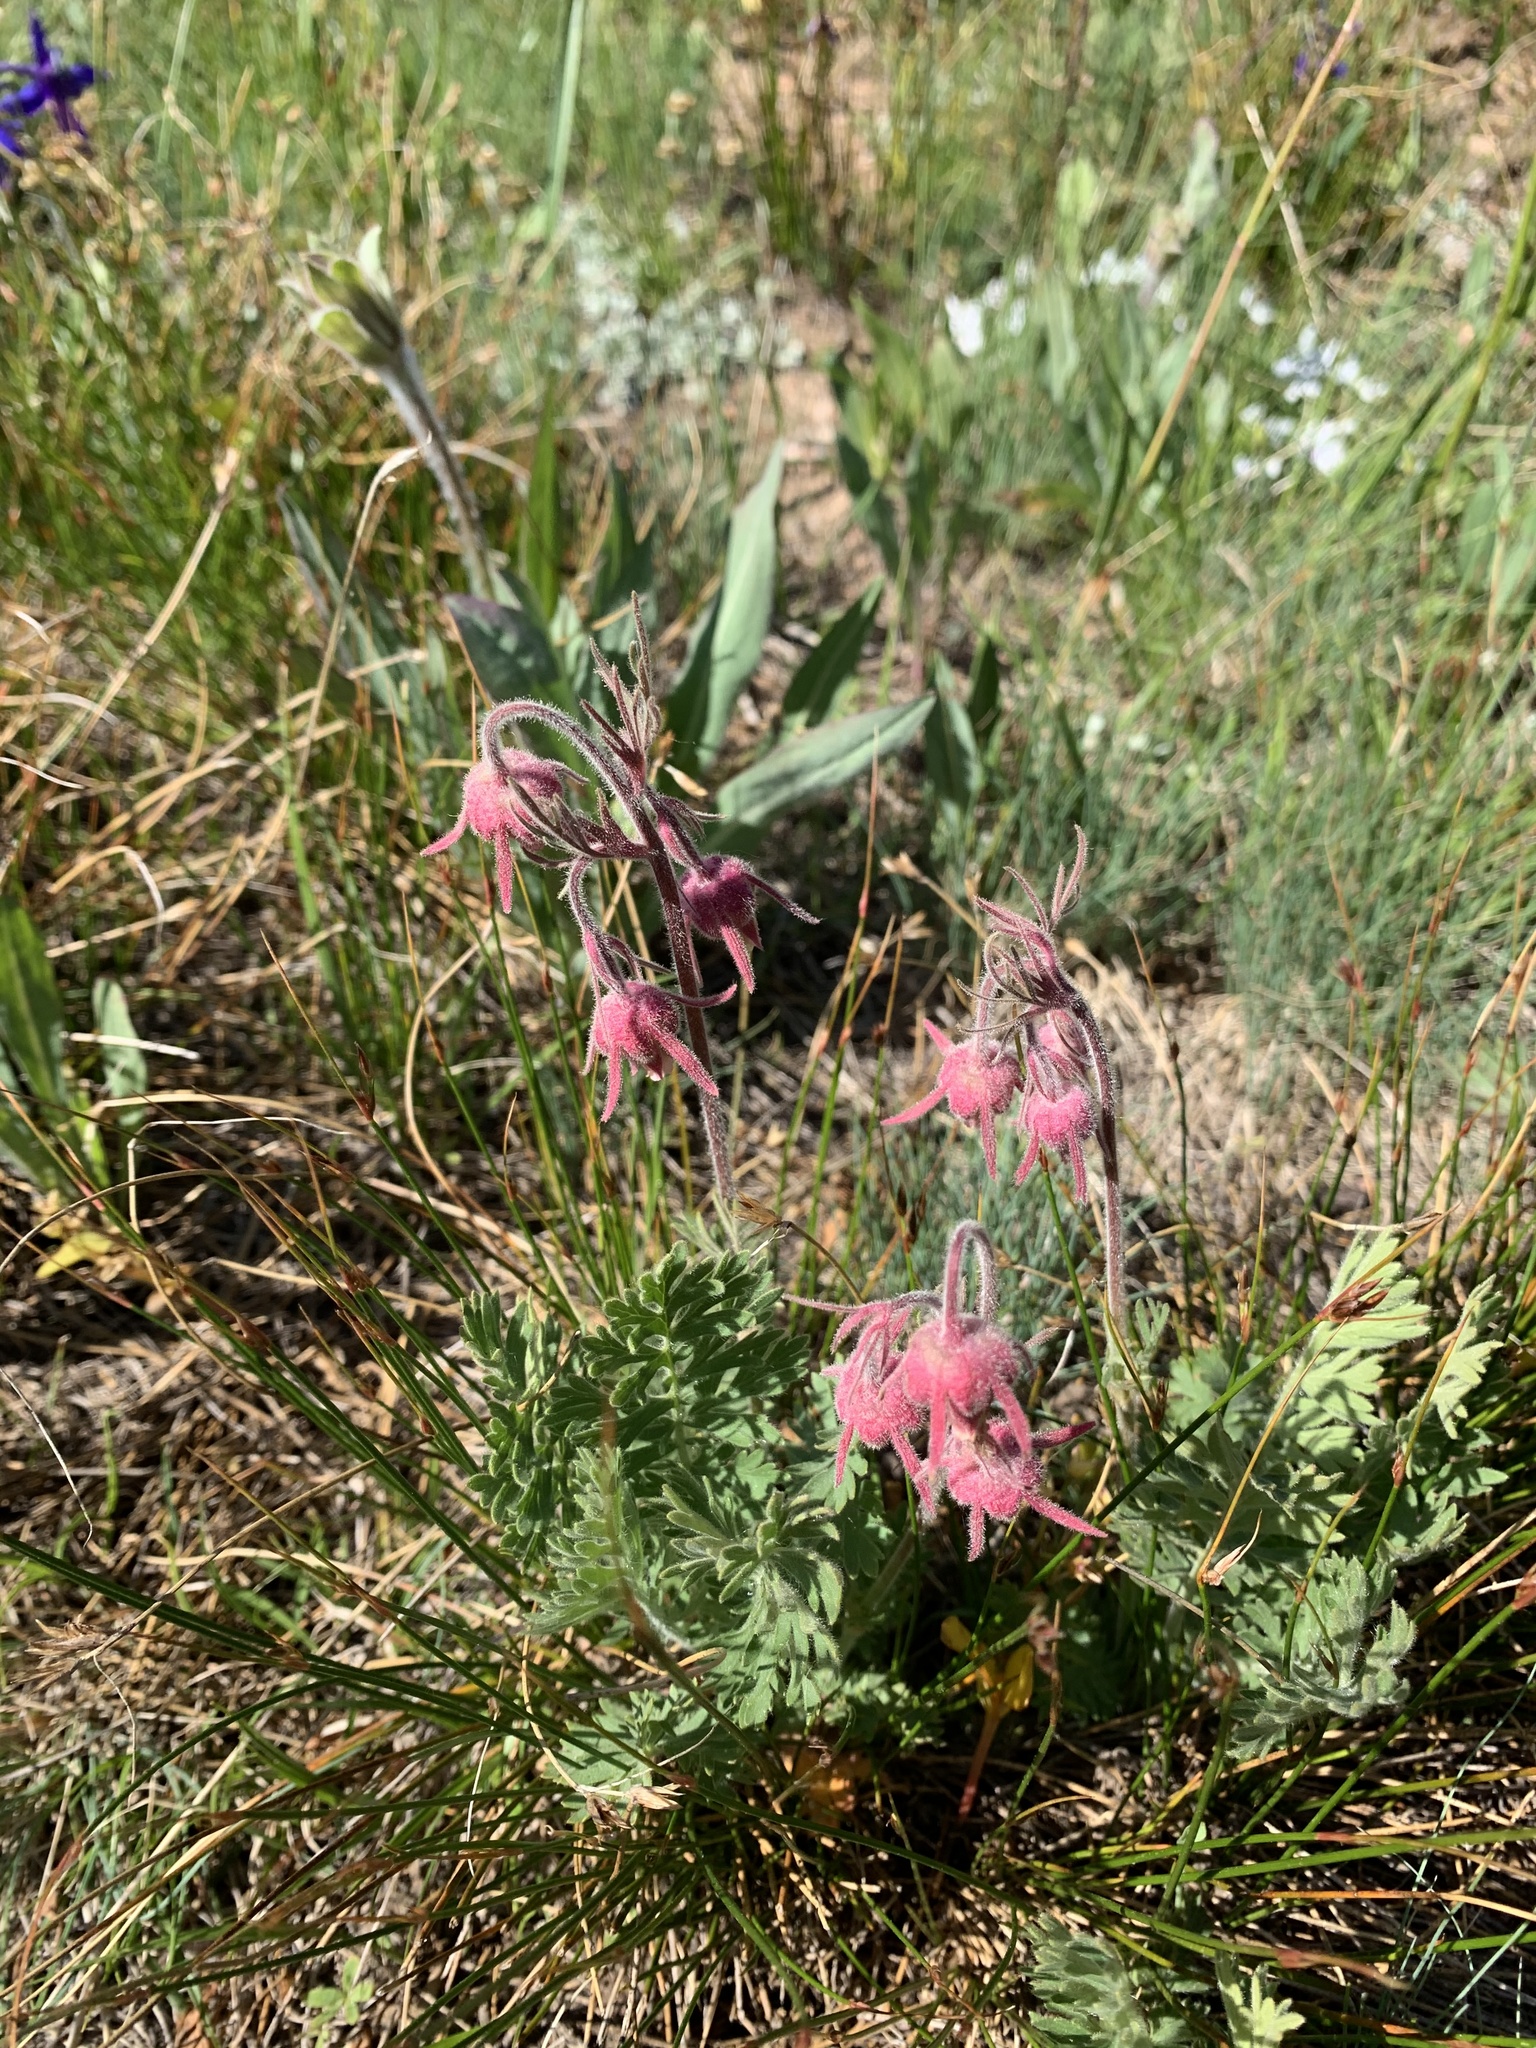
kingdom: Plantae
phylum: Tracheophyta
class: Magnoliopsida
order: Rosales
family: Rosaceae
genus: Geum
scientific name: Geum triflorum
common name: Old man's whiskers
